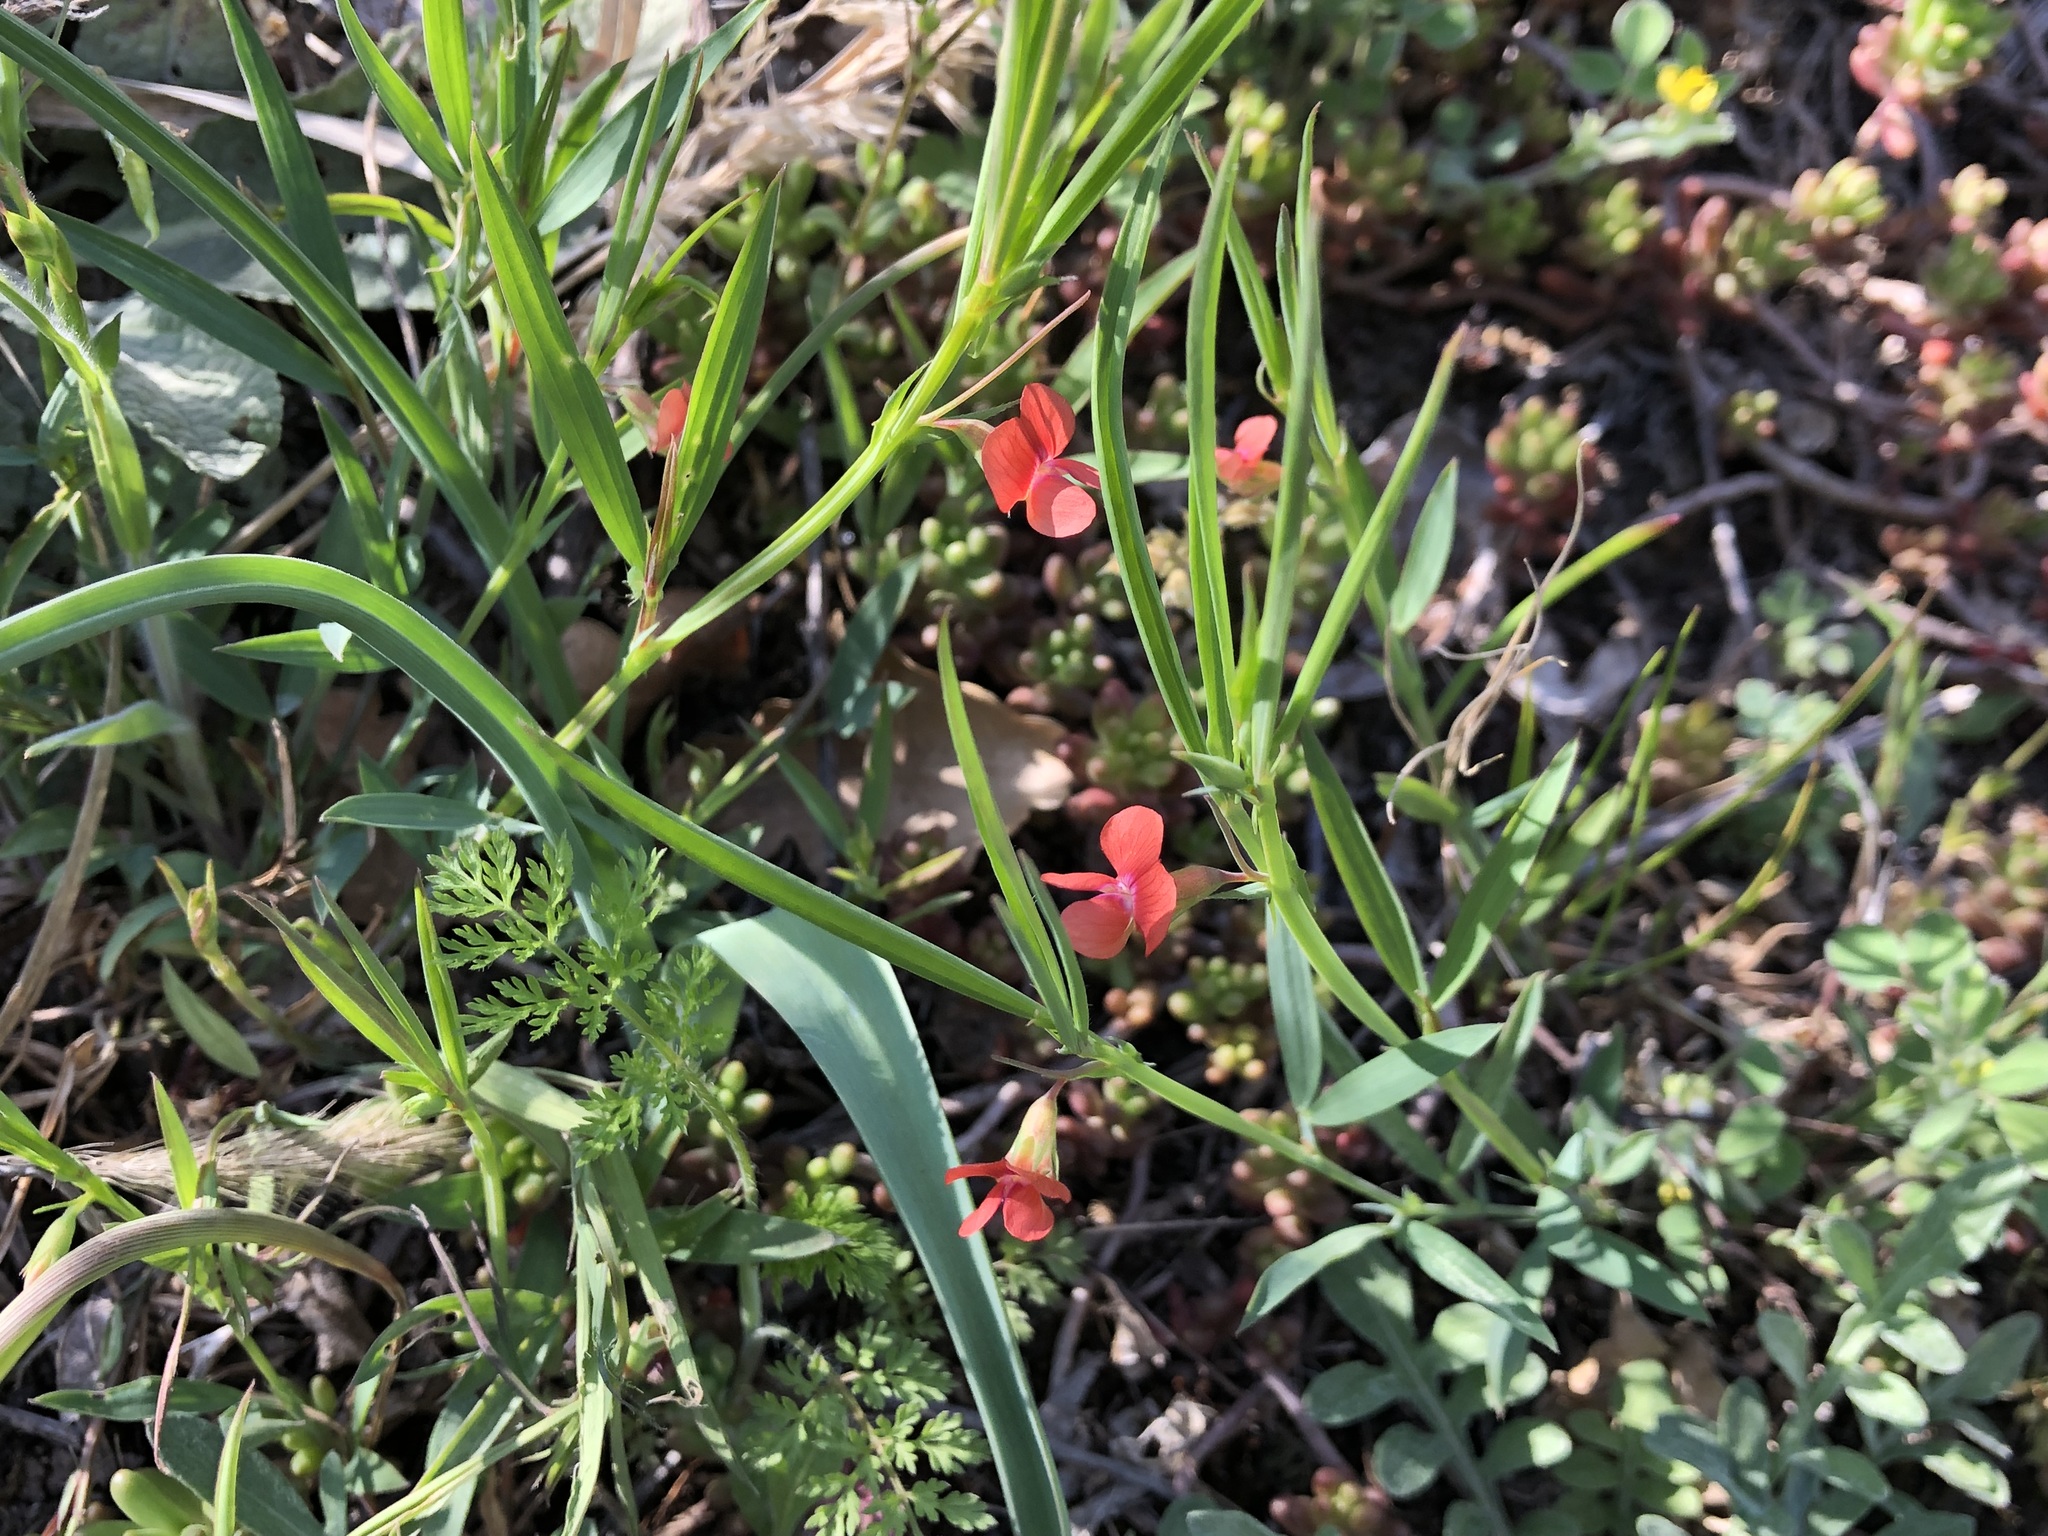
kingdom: Plantae
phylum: Tracheophyta
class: Magnoliopsida
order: Fabales
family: Fabaceae
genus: Lathyrus
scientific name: Lathyrus sphaericus
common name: Grass pea
